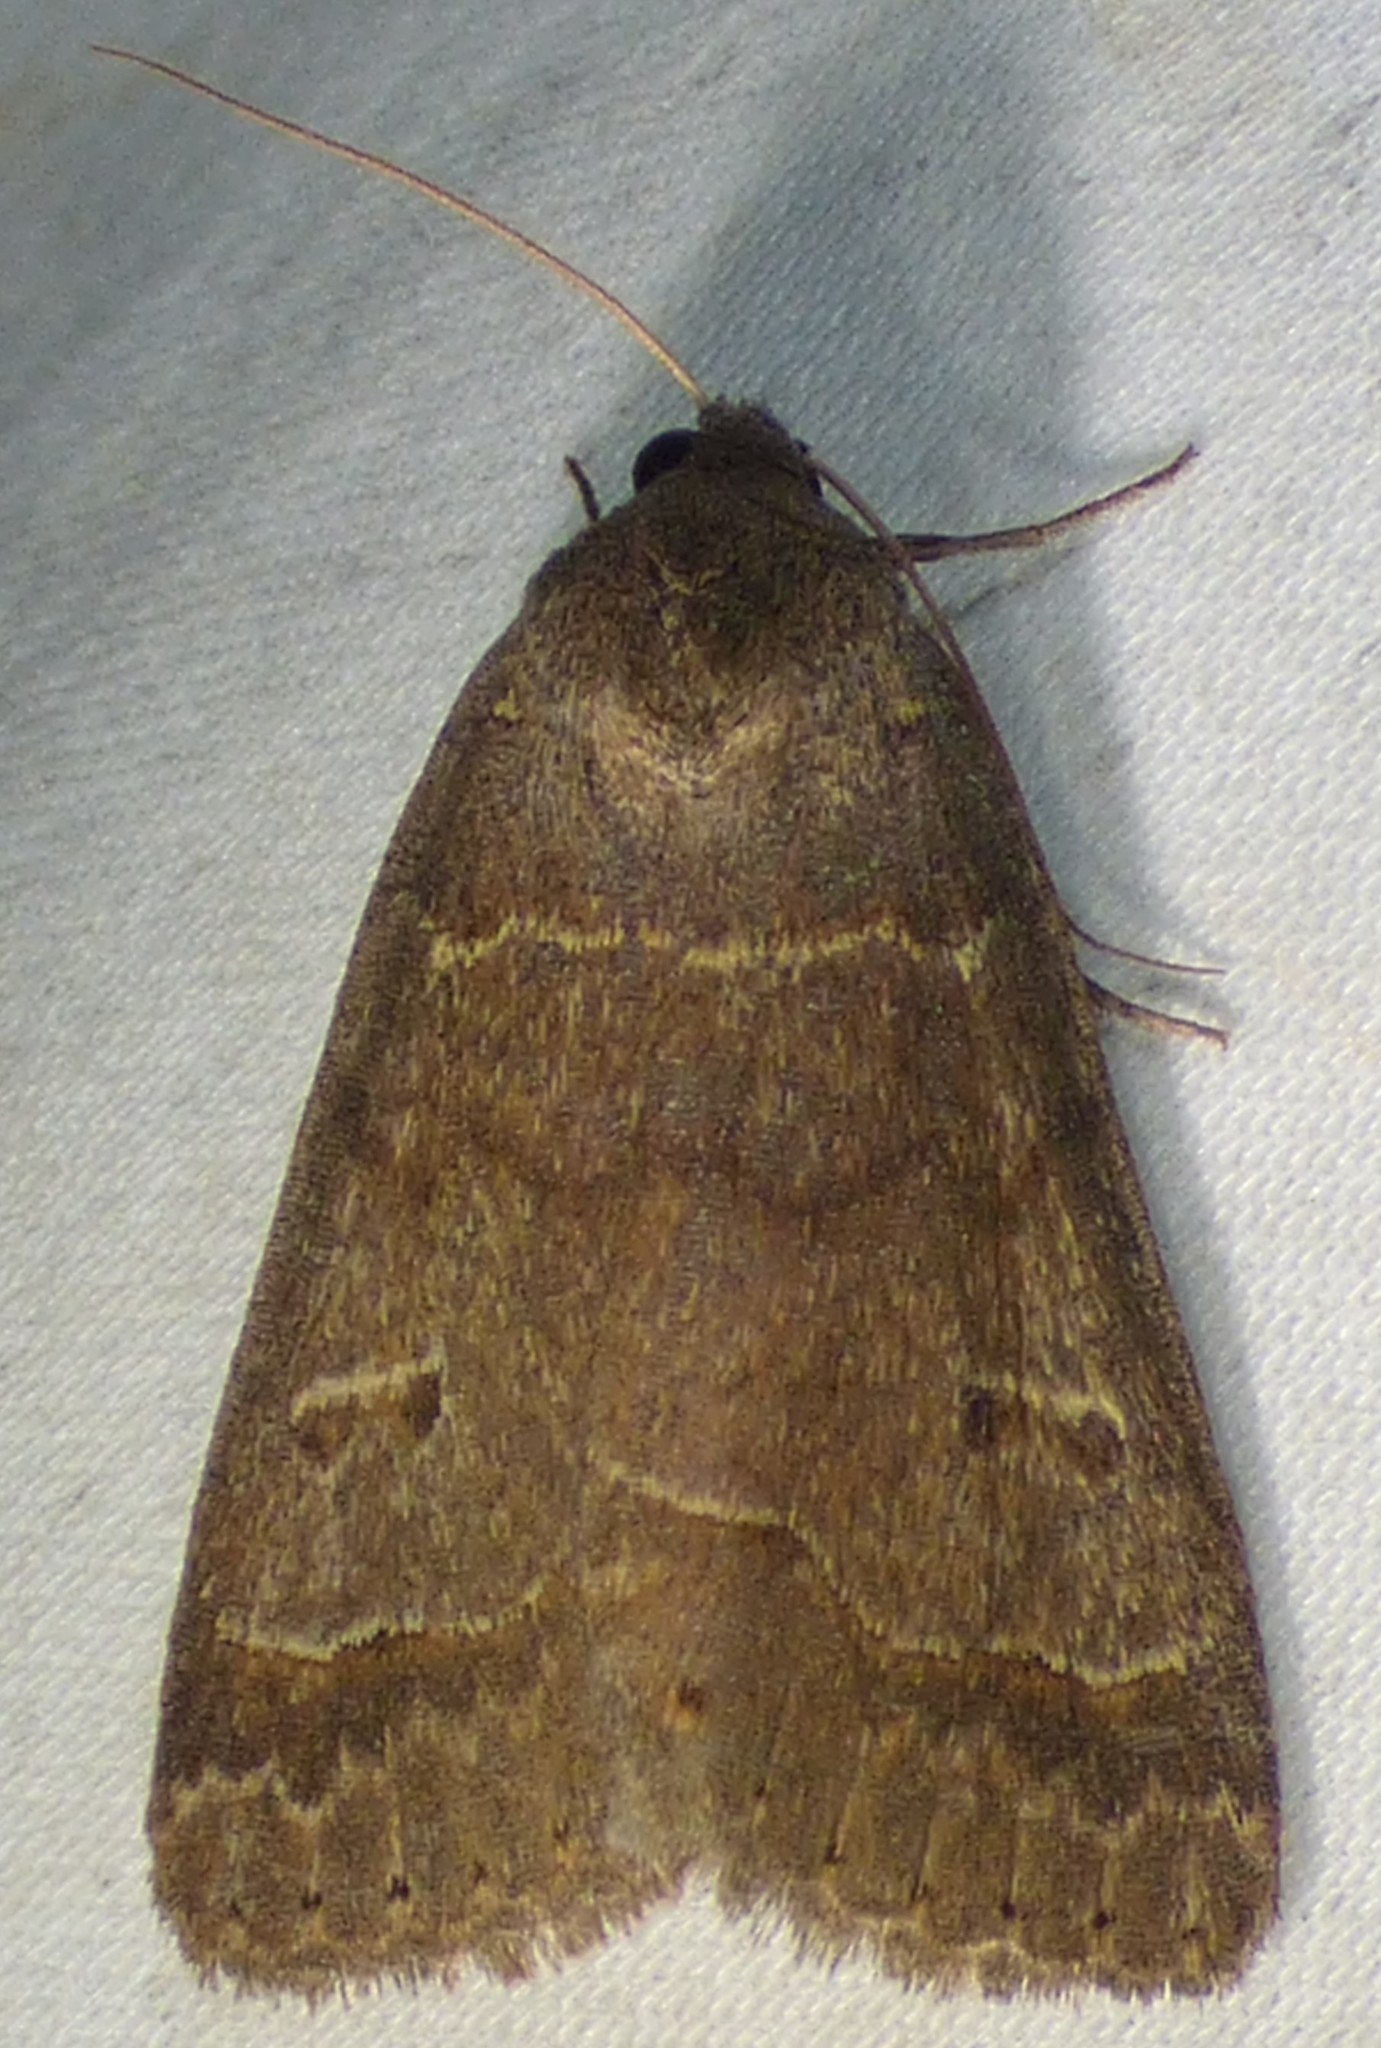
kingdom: Animalia
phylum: Arthropoda
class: Insecta
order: Lepidoptera
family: Erebidae
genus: Phoberia
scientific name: Phoberia atomaris
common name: Common oak moth
